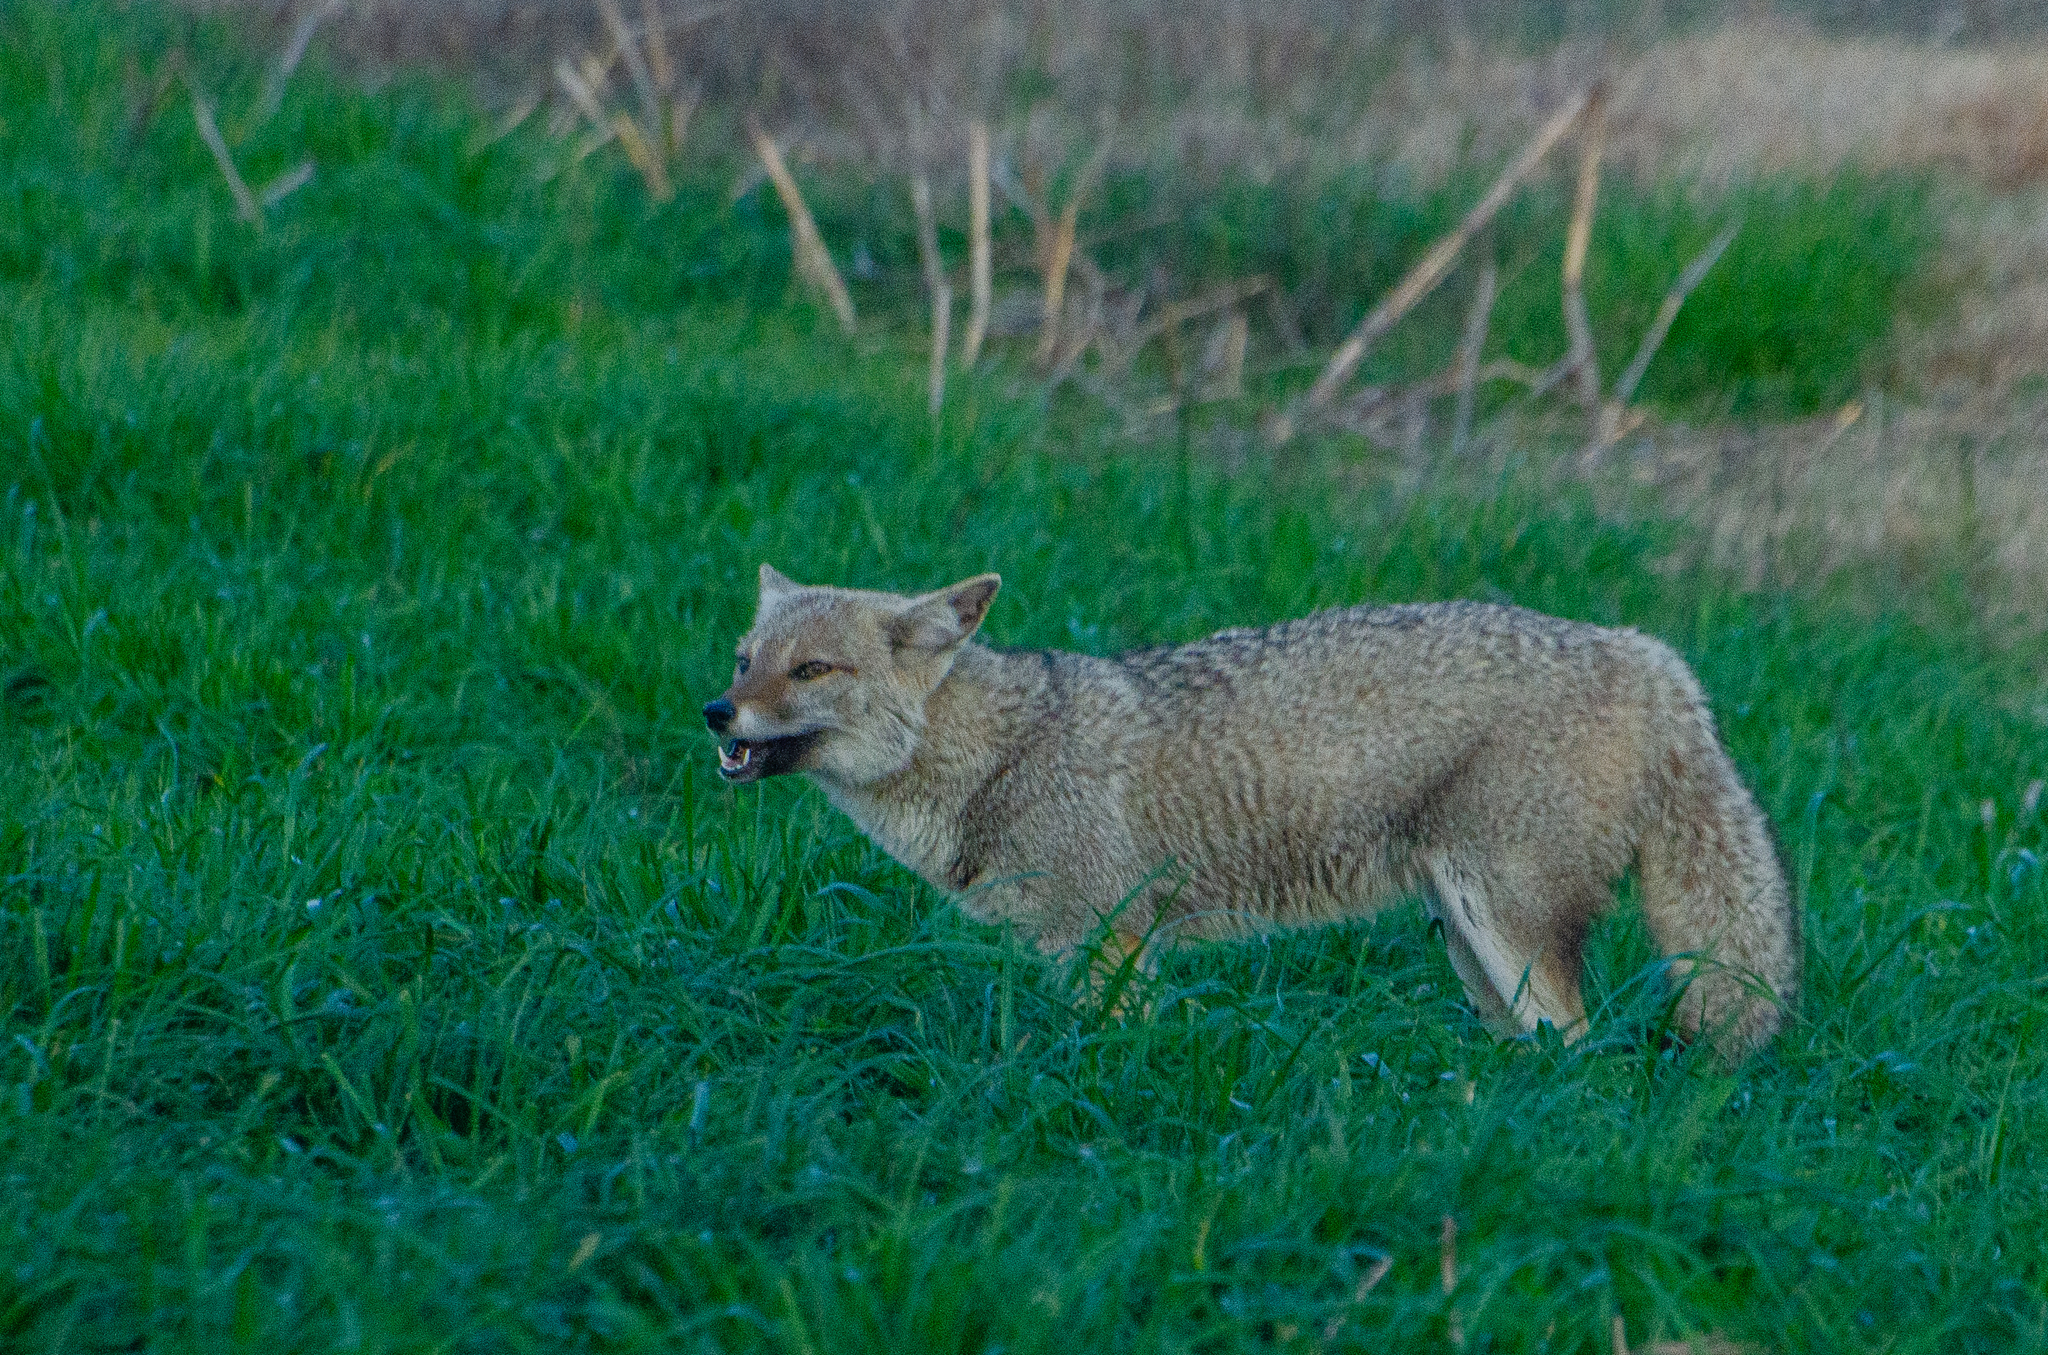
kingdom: Animalia
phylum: Chordata
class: Mammalia
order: Carnivora
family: Canidae
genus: Lycalopex
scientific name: Lycalopex gymnocercus
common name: Pampas fox
